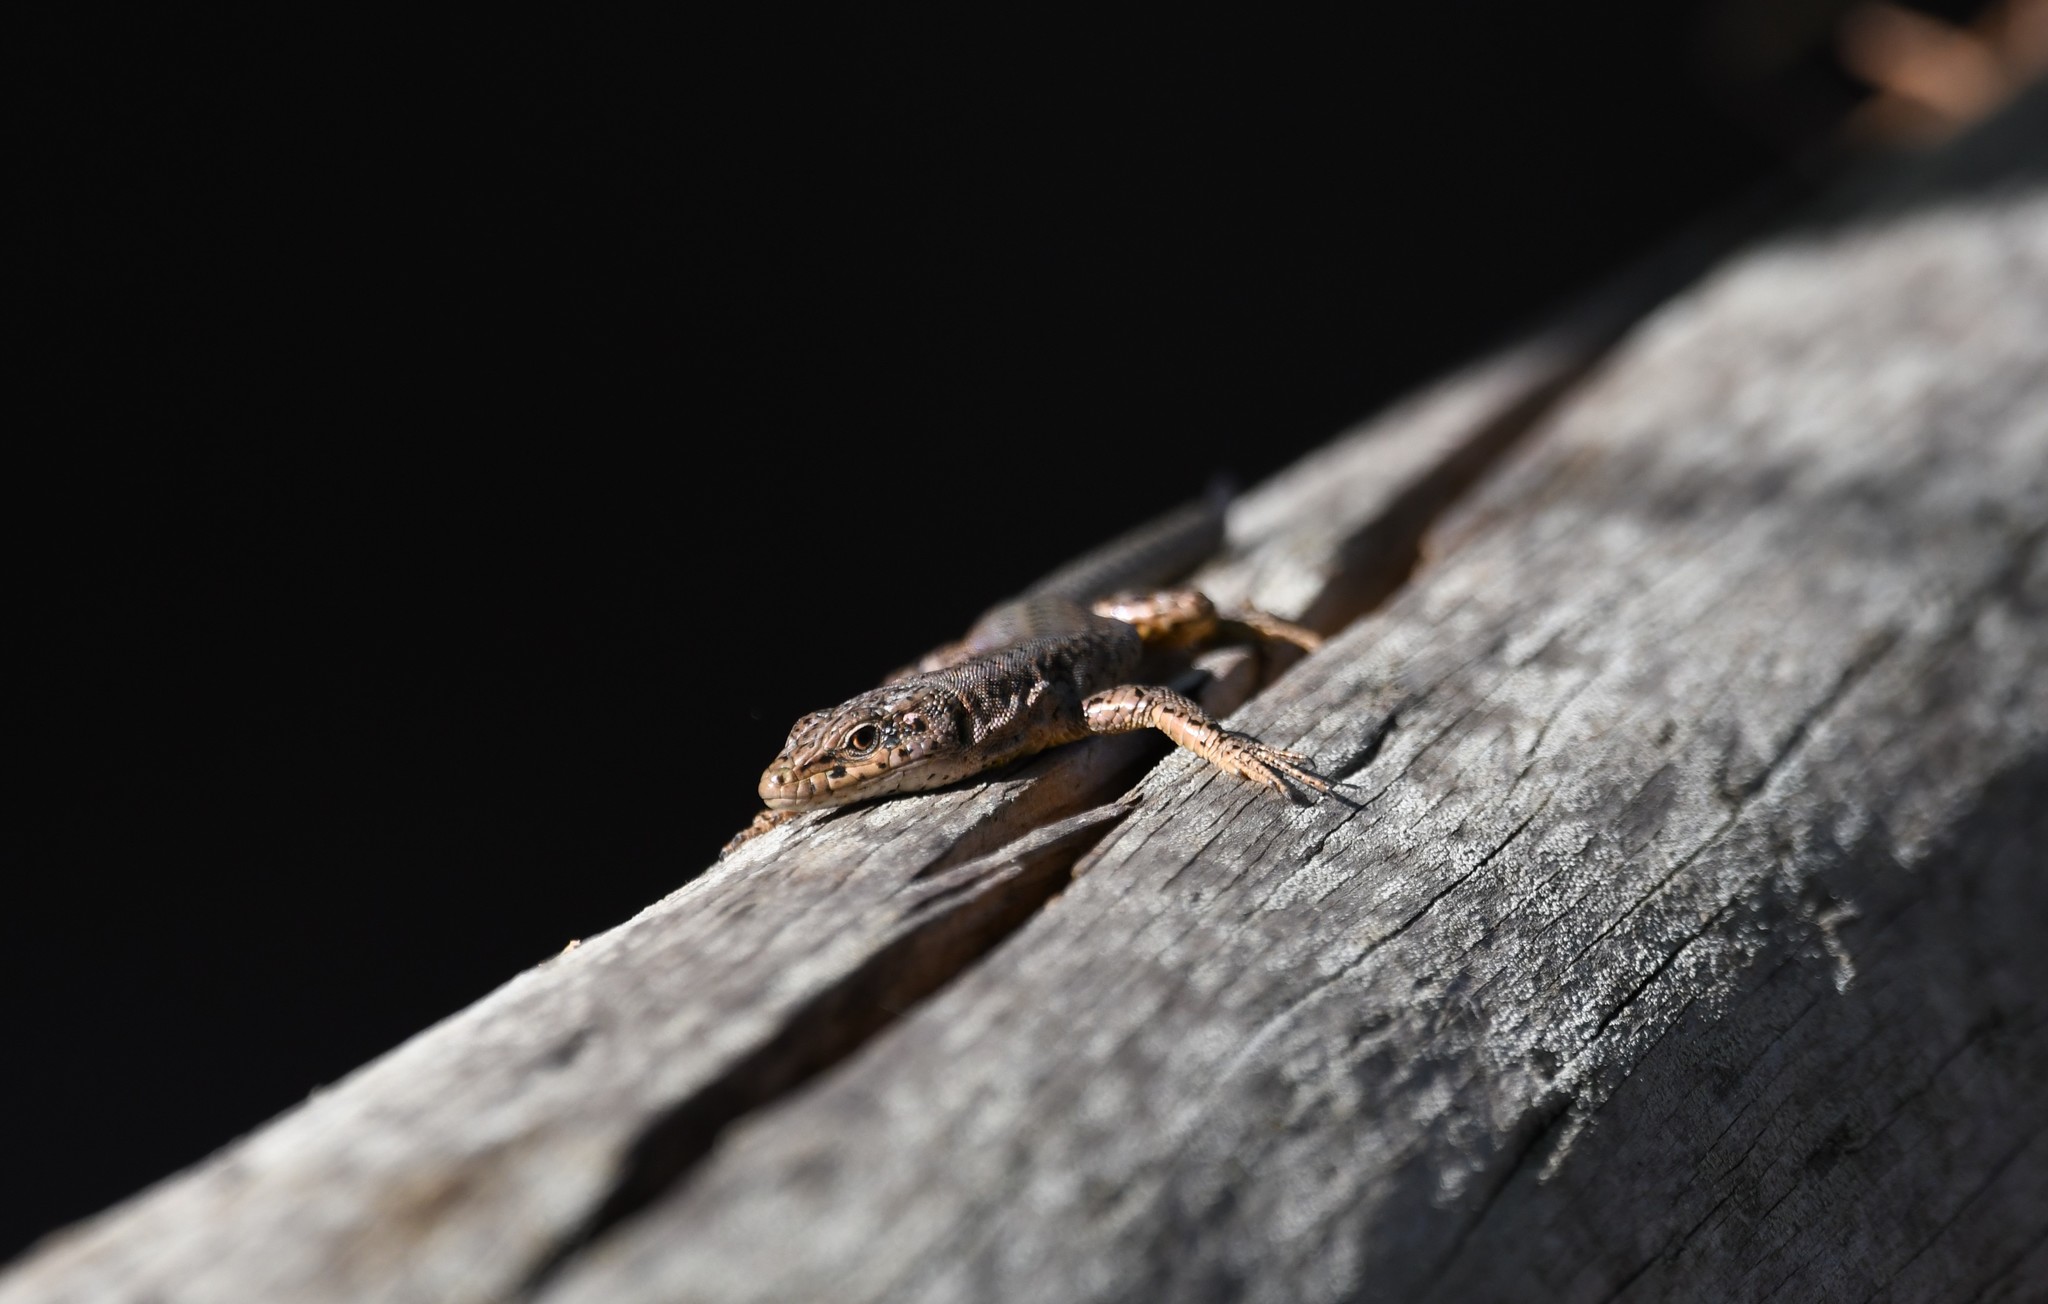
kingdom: Animalia
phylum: Chordata
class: Squamata
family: Lacertidae
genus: Podarcis
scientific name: Podarcis virescens
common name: Geniez’s wall lizard
